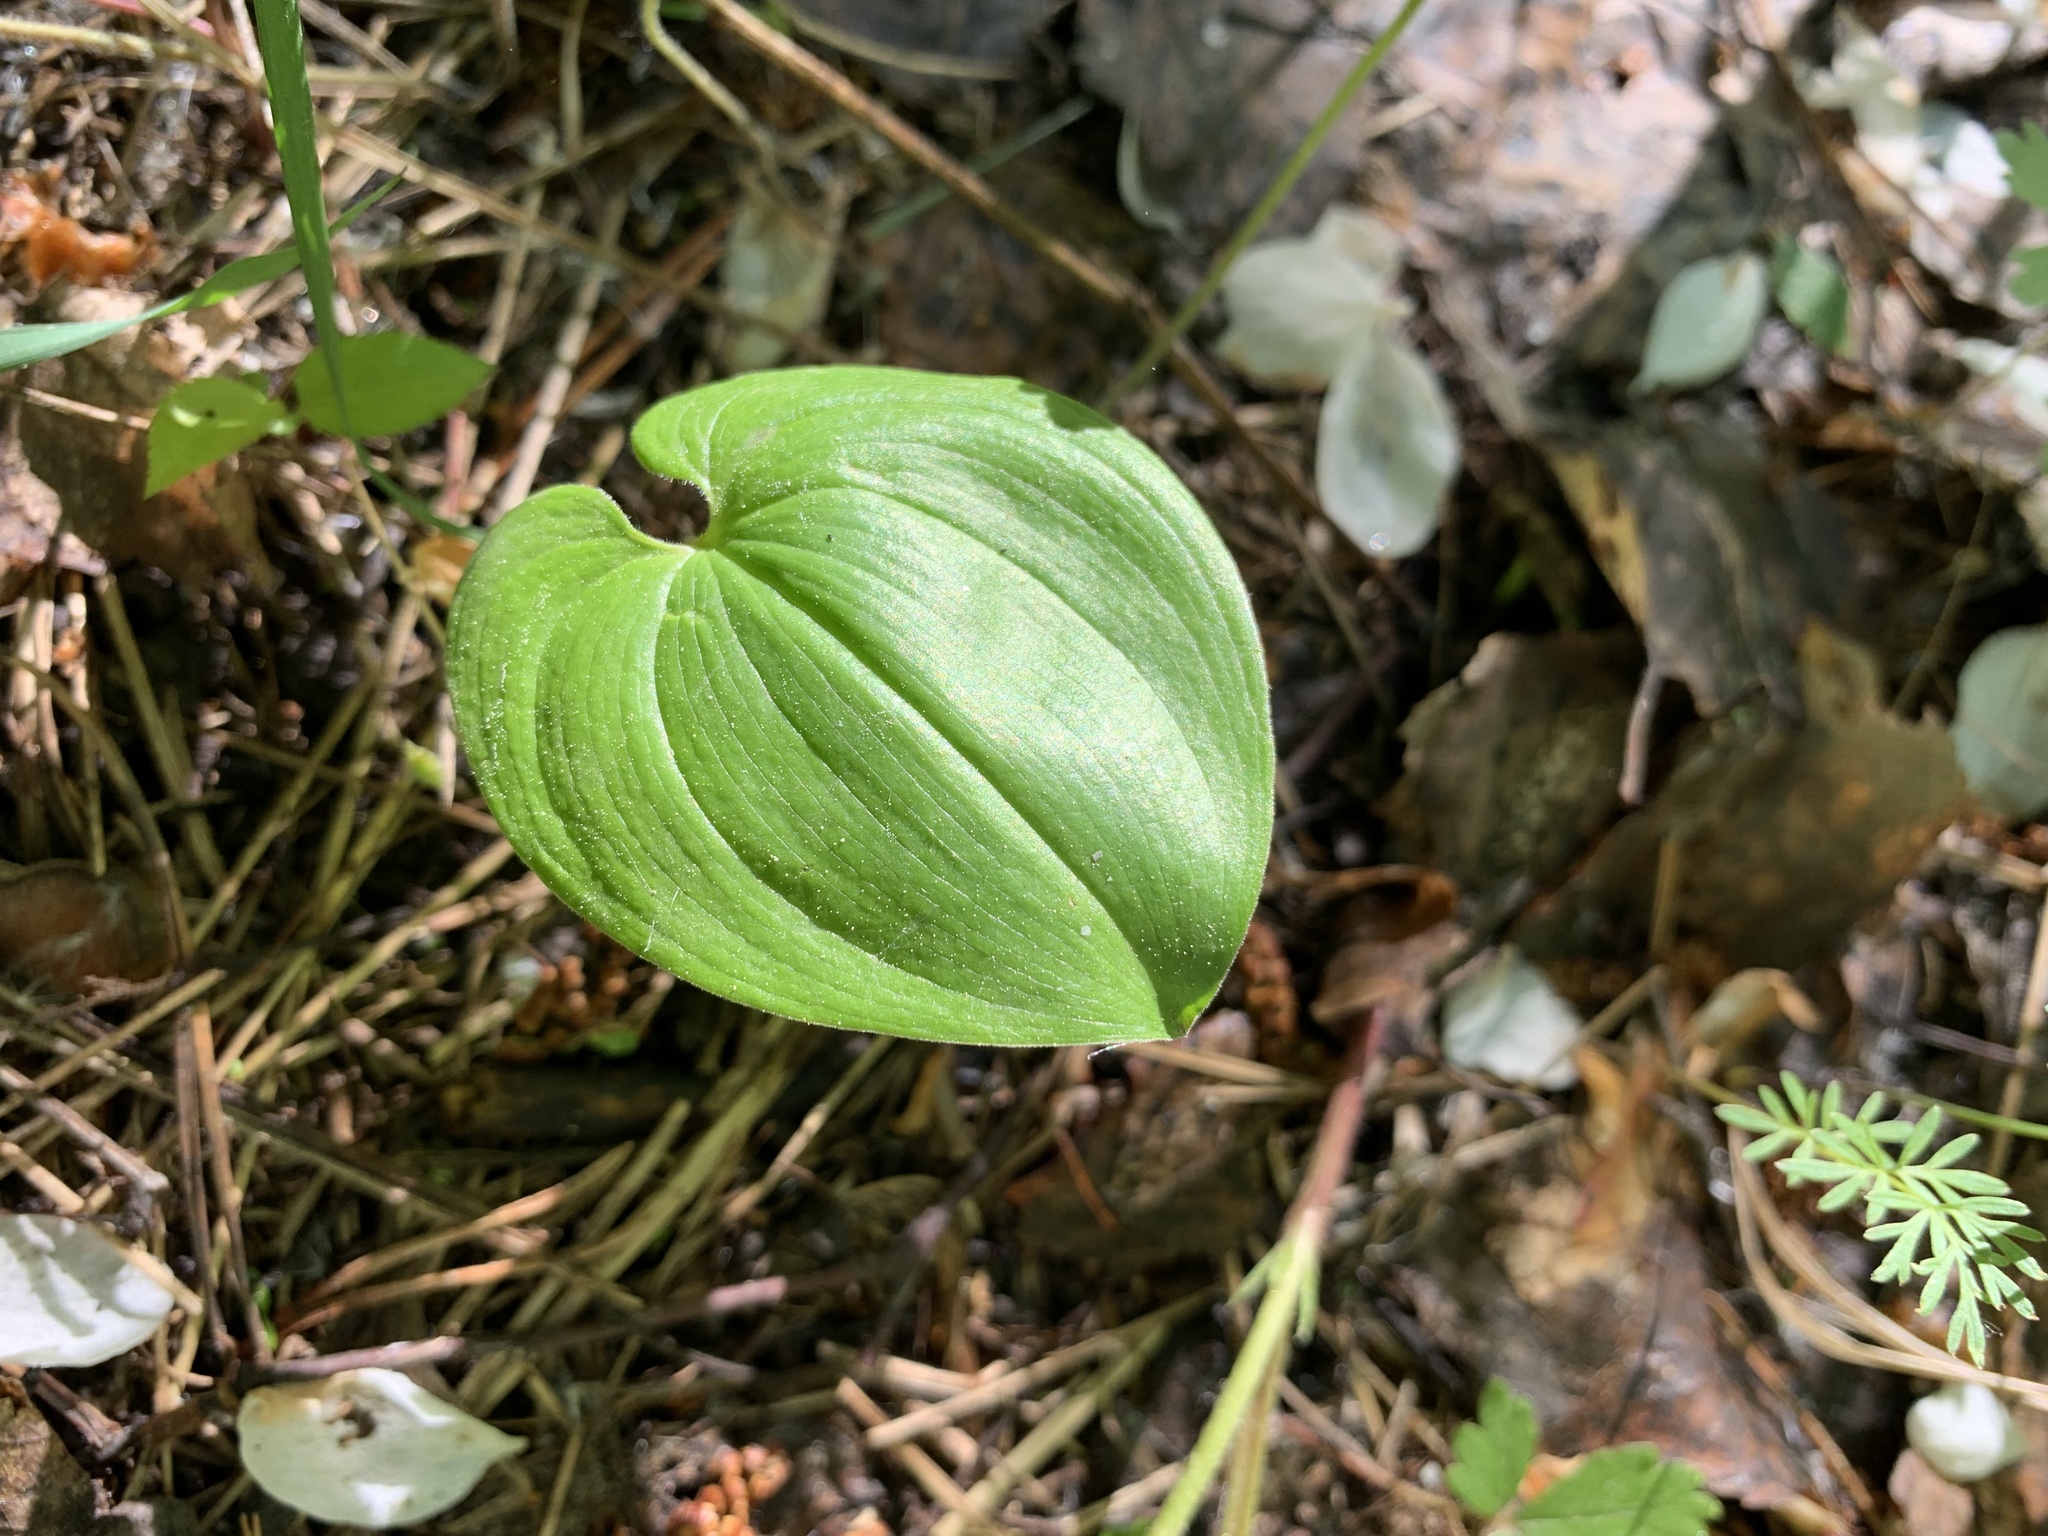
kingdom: Plantae
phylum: Tracheophyta
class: Liliopsida
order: Asparagales
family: Asparagaceae
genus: Maianthemum
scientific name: Maianthemum bifolium
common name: May lily
